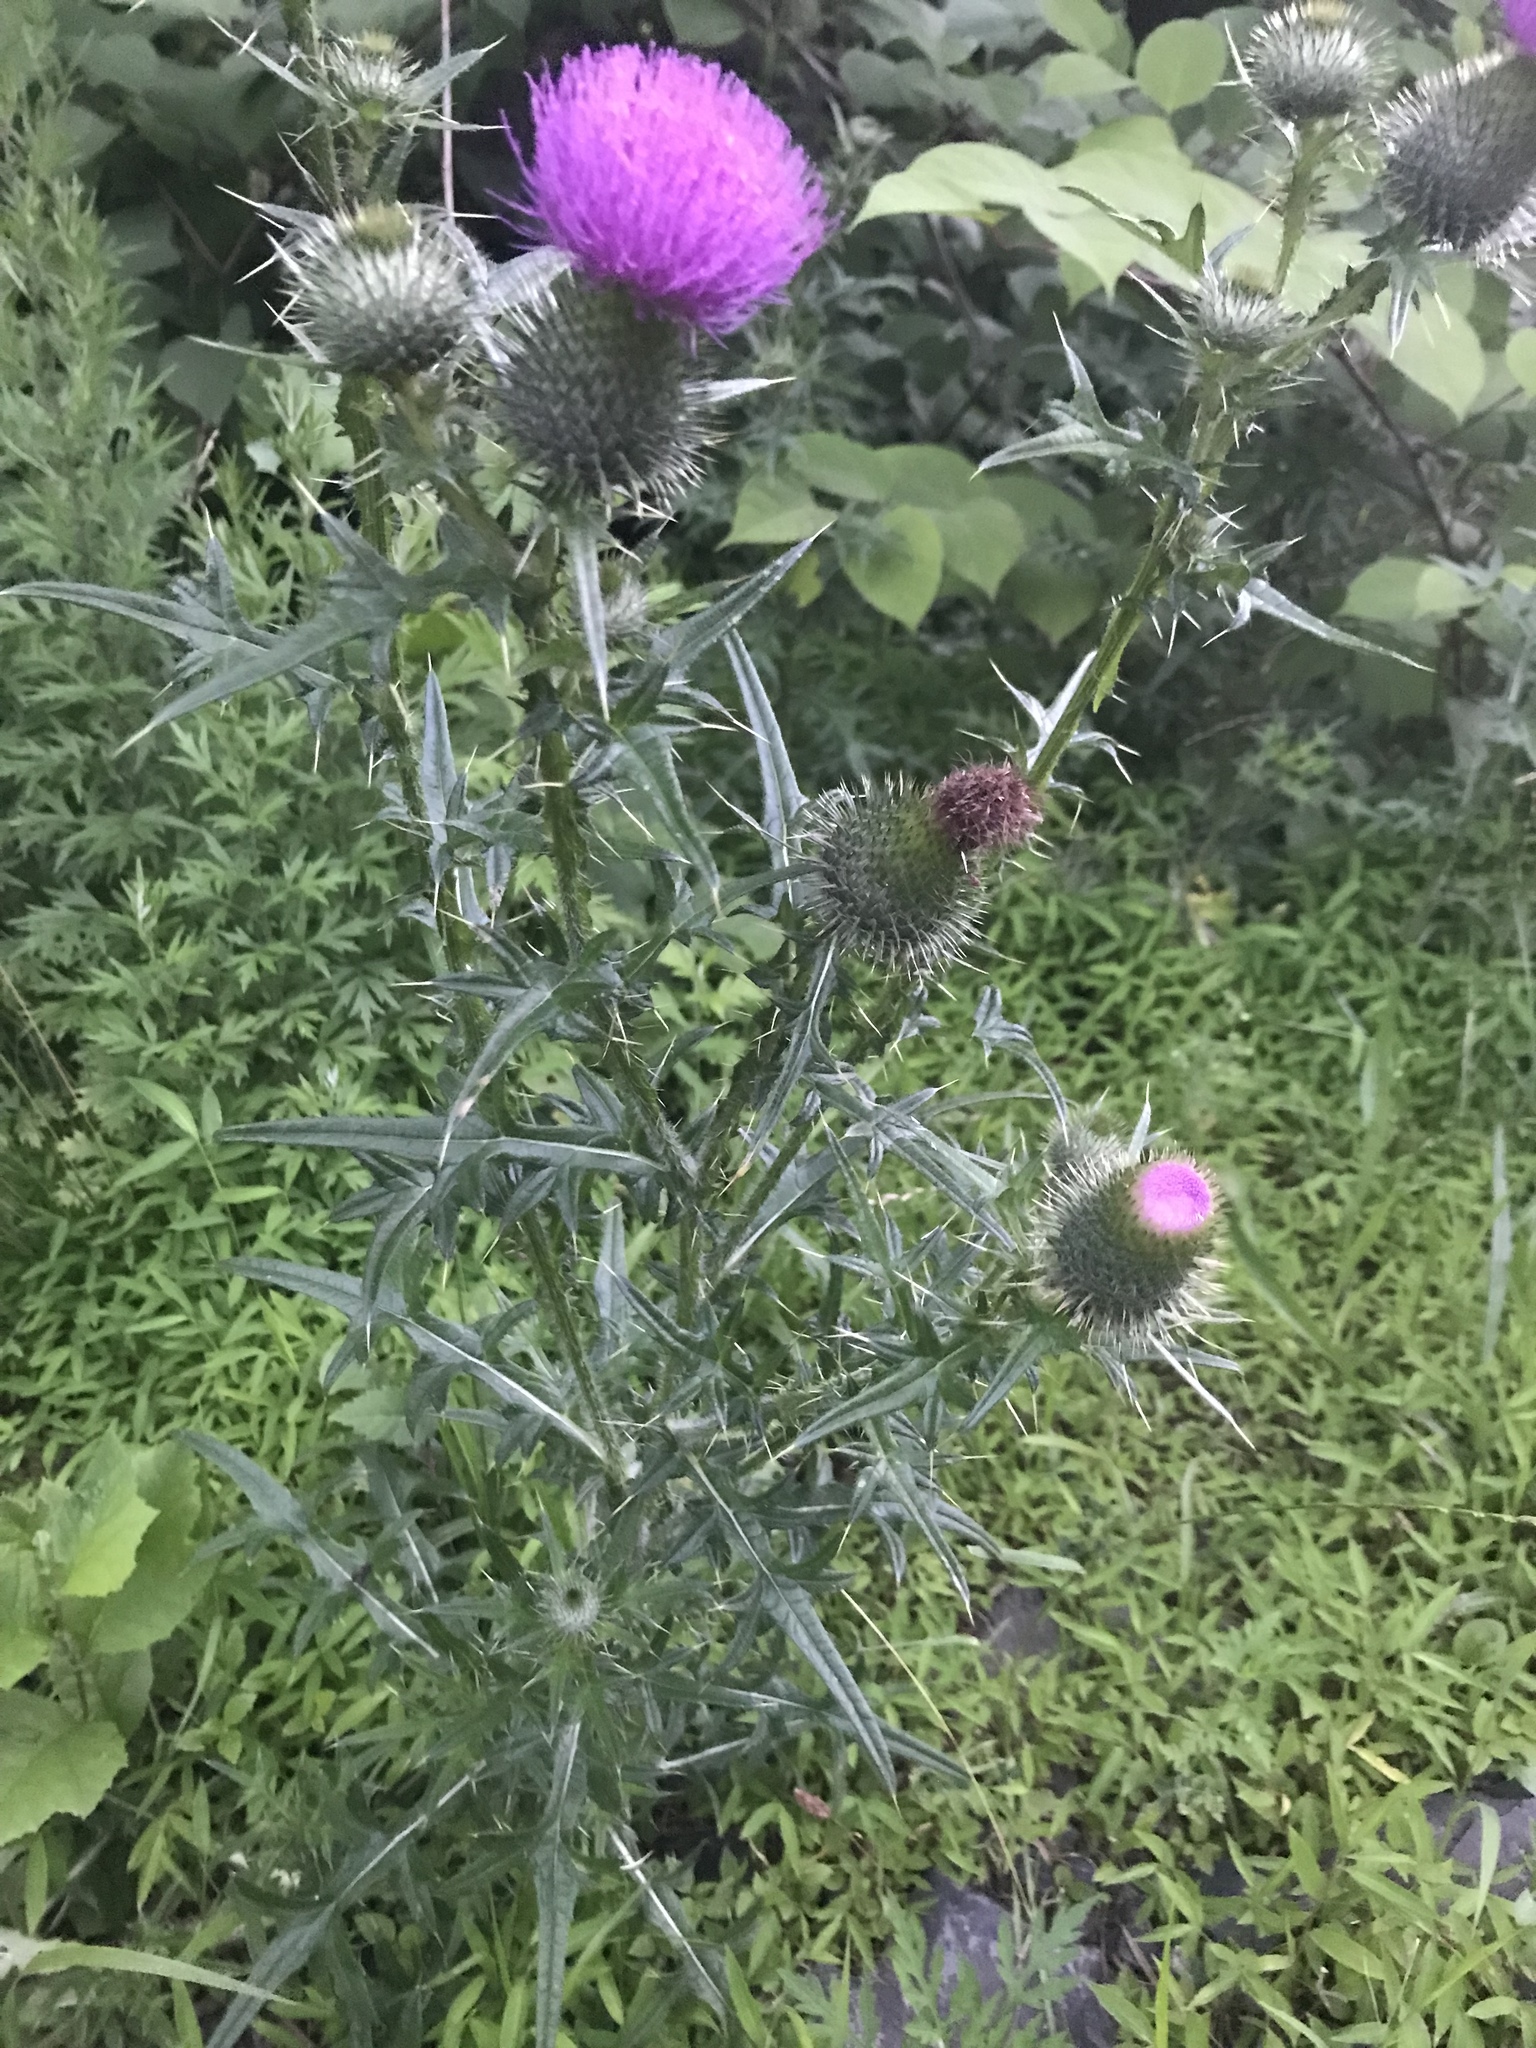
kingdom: Plantae
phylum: Tracheophyta
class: Magnoliopsida
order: Asterales
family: Asteraceae
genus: Cirsium
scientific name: Cirsium vulgare
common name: Bull thistle
